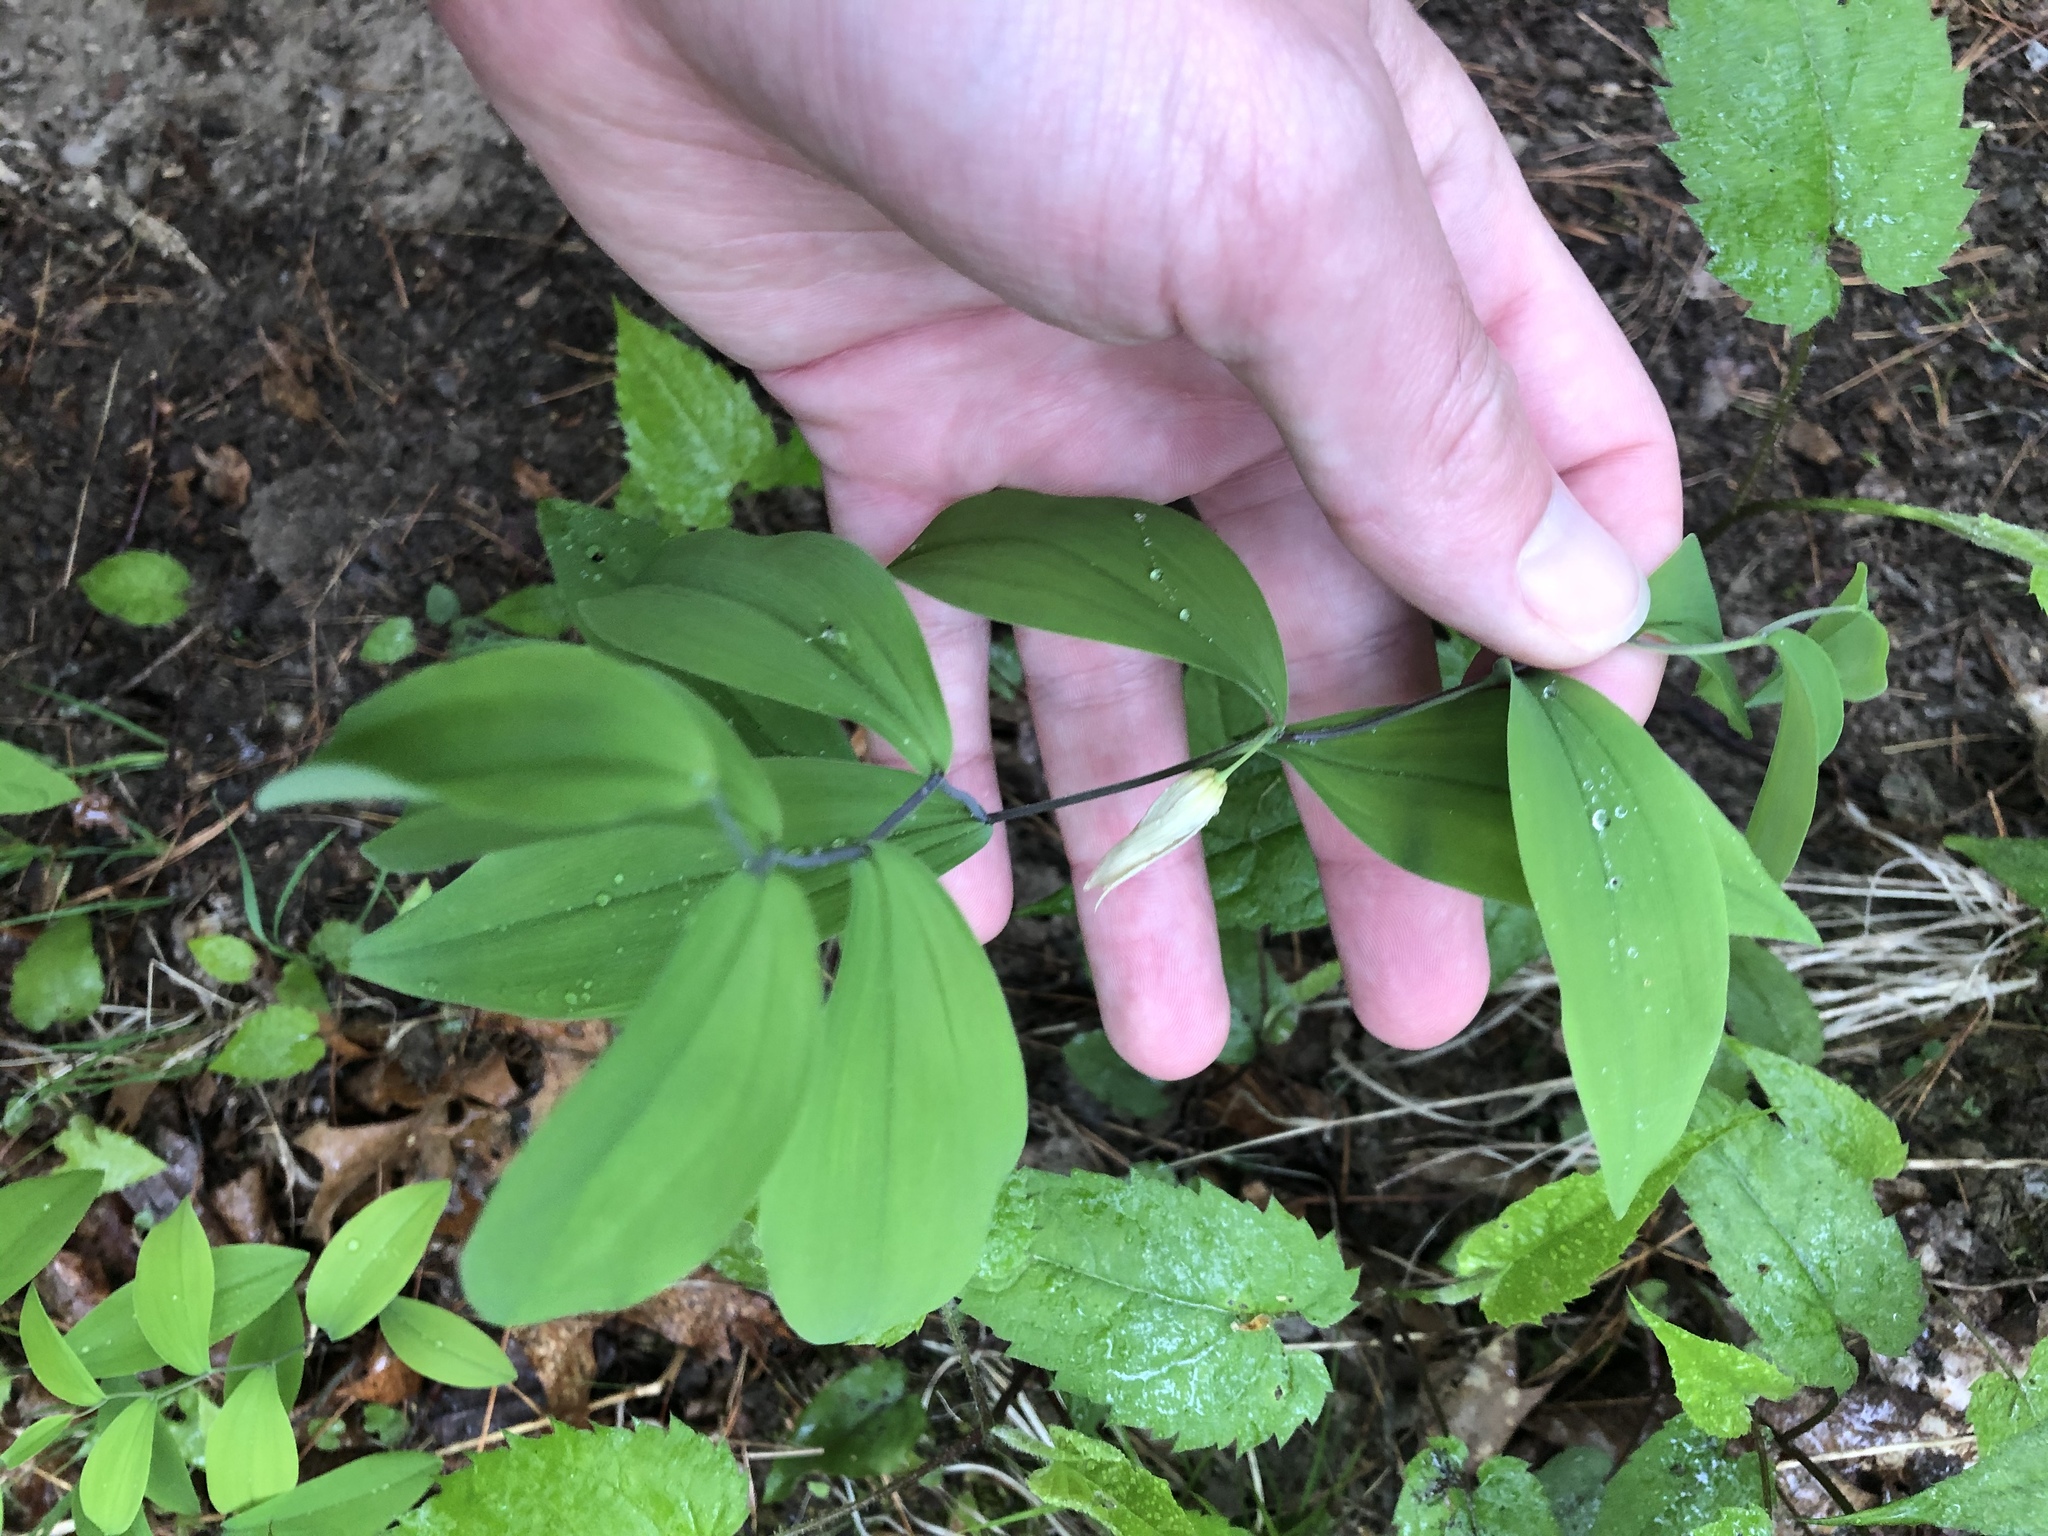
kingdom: Plantae
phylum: Tracheophyta
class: Liliopsida
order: Liliales
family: Colchicaceae
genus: Uvularia
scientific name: Uvularia sessilifolia
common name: Straw-lily
